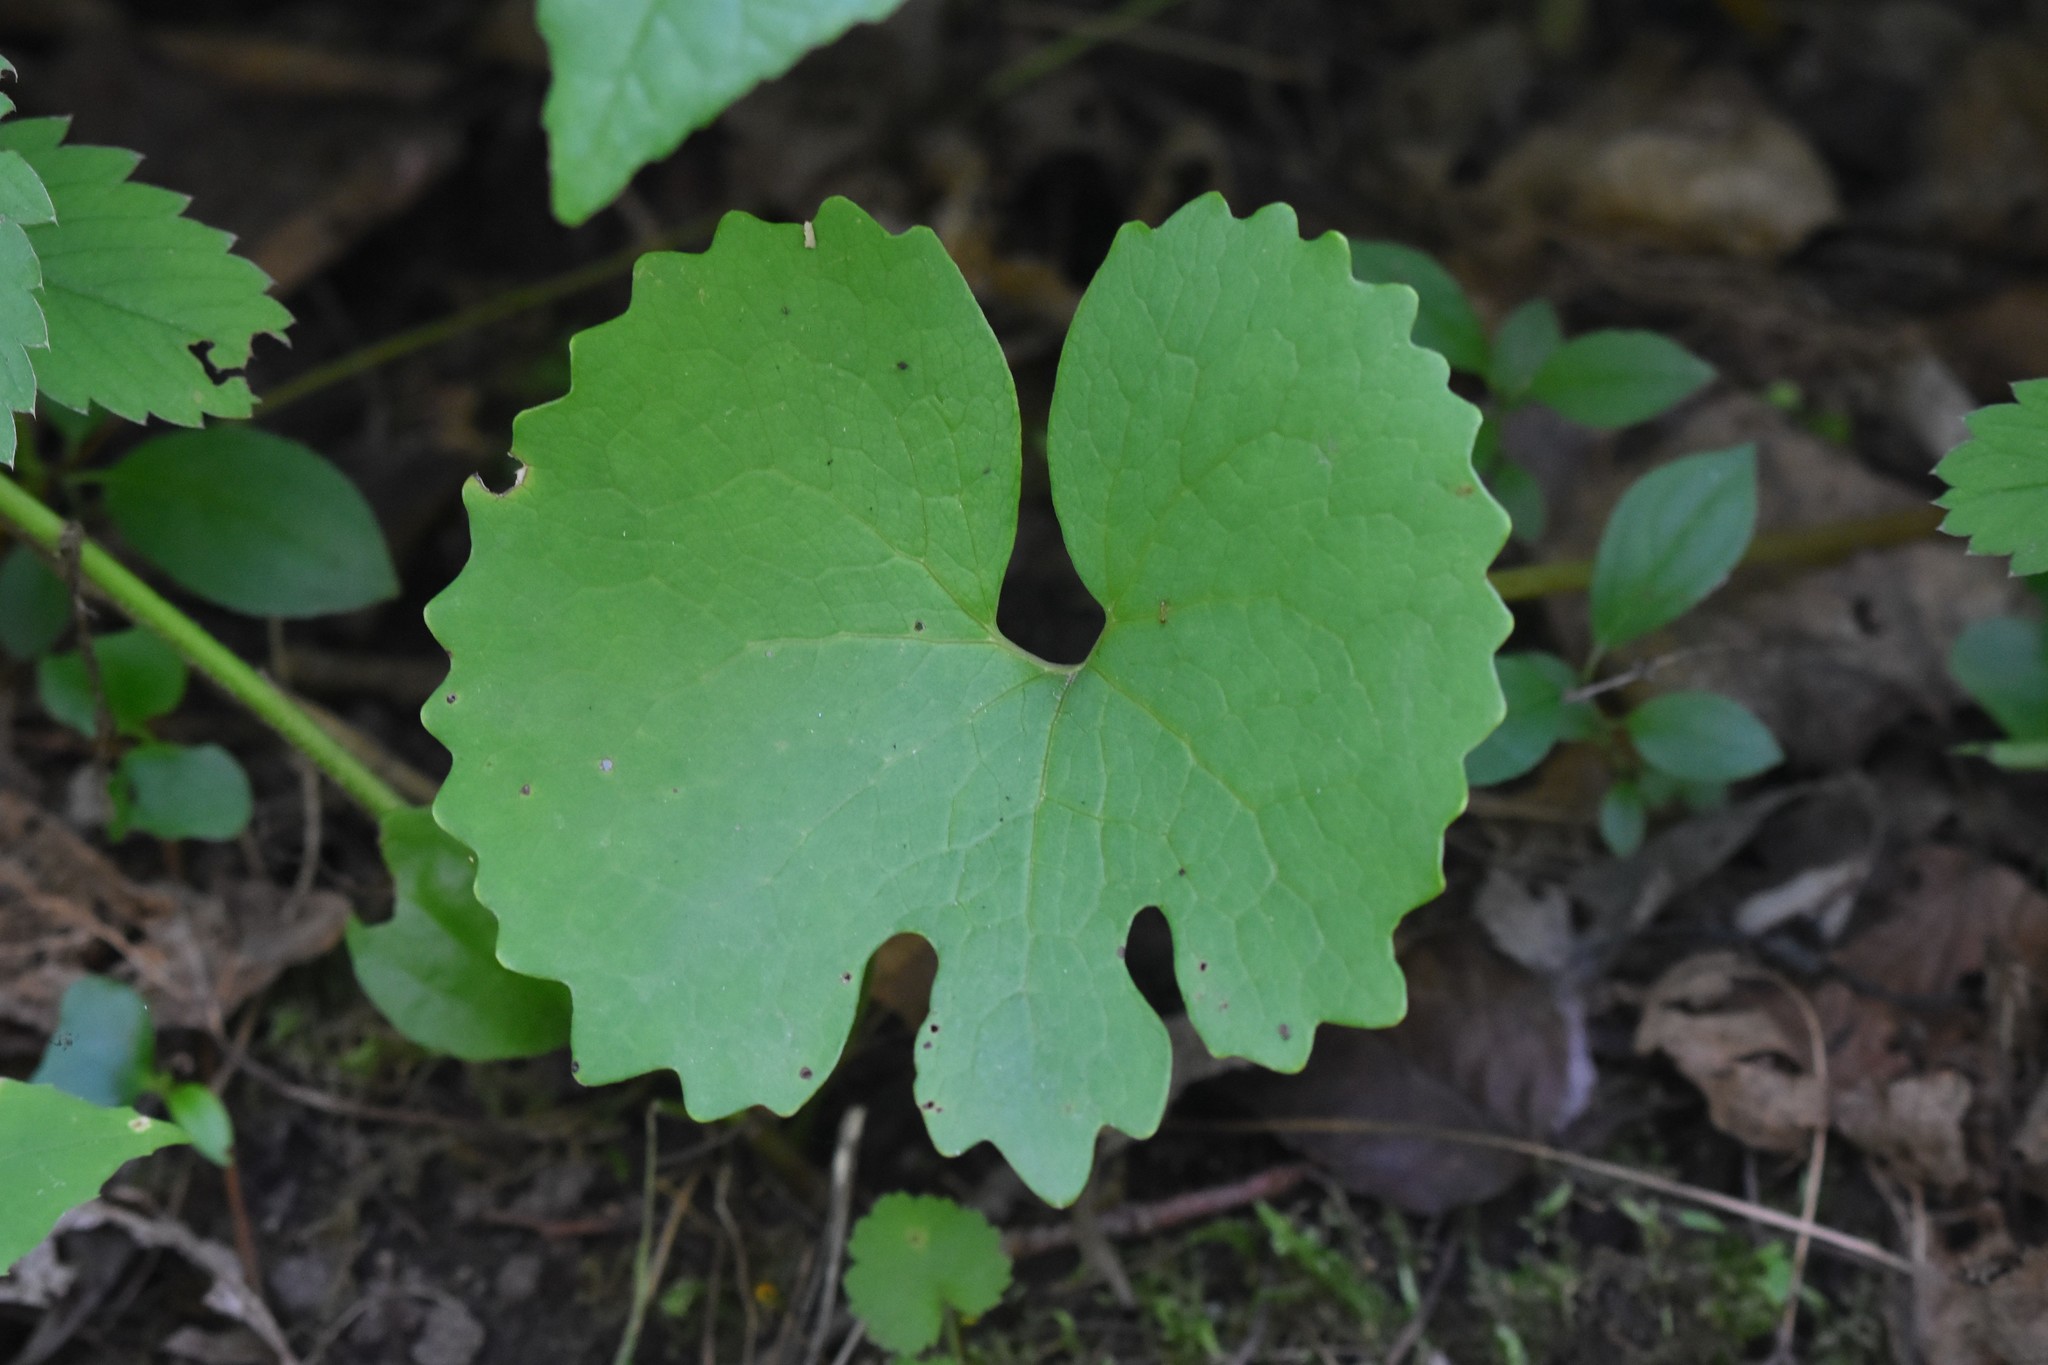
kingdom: Plantae
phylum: Tracheophyta
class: Magnoliopsida
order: Ranunculales
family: Papaveraceae
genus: Sanguinaria
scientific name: Sanguinaria canadensis
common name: Bloodroot
